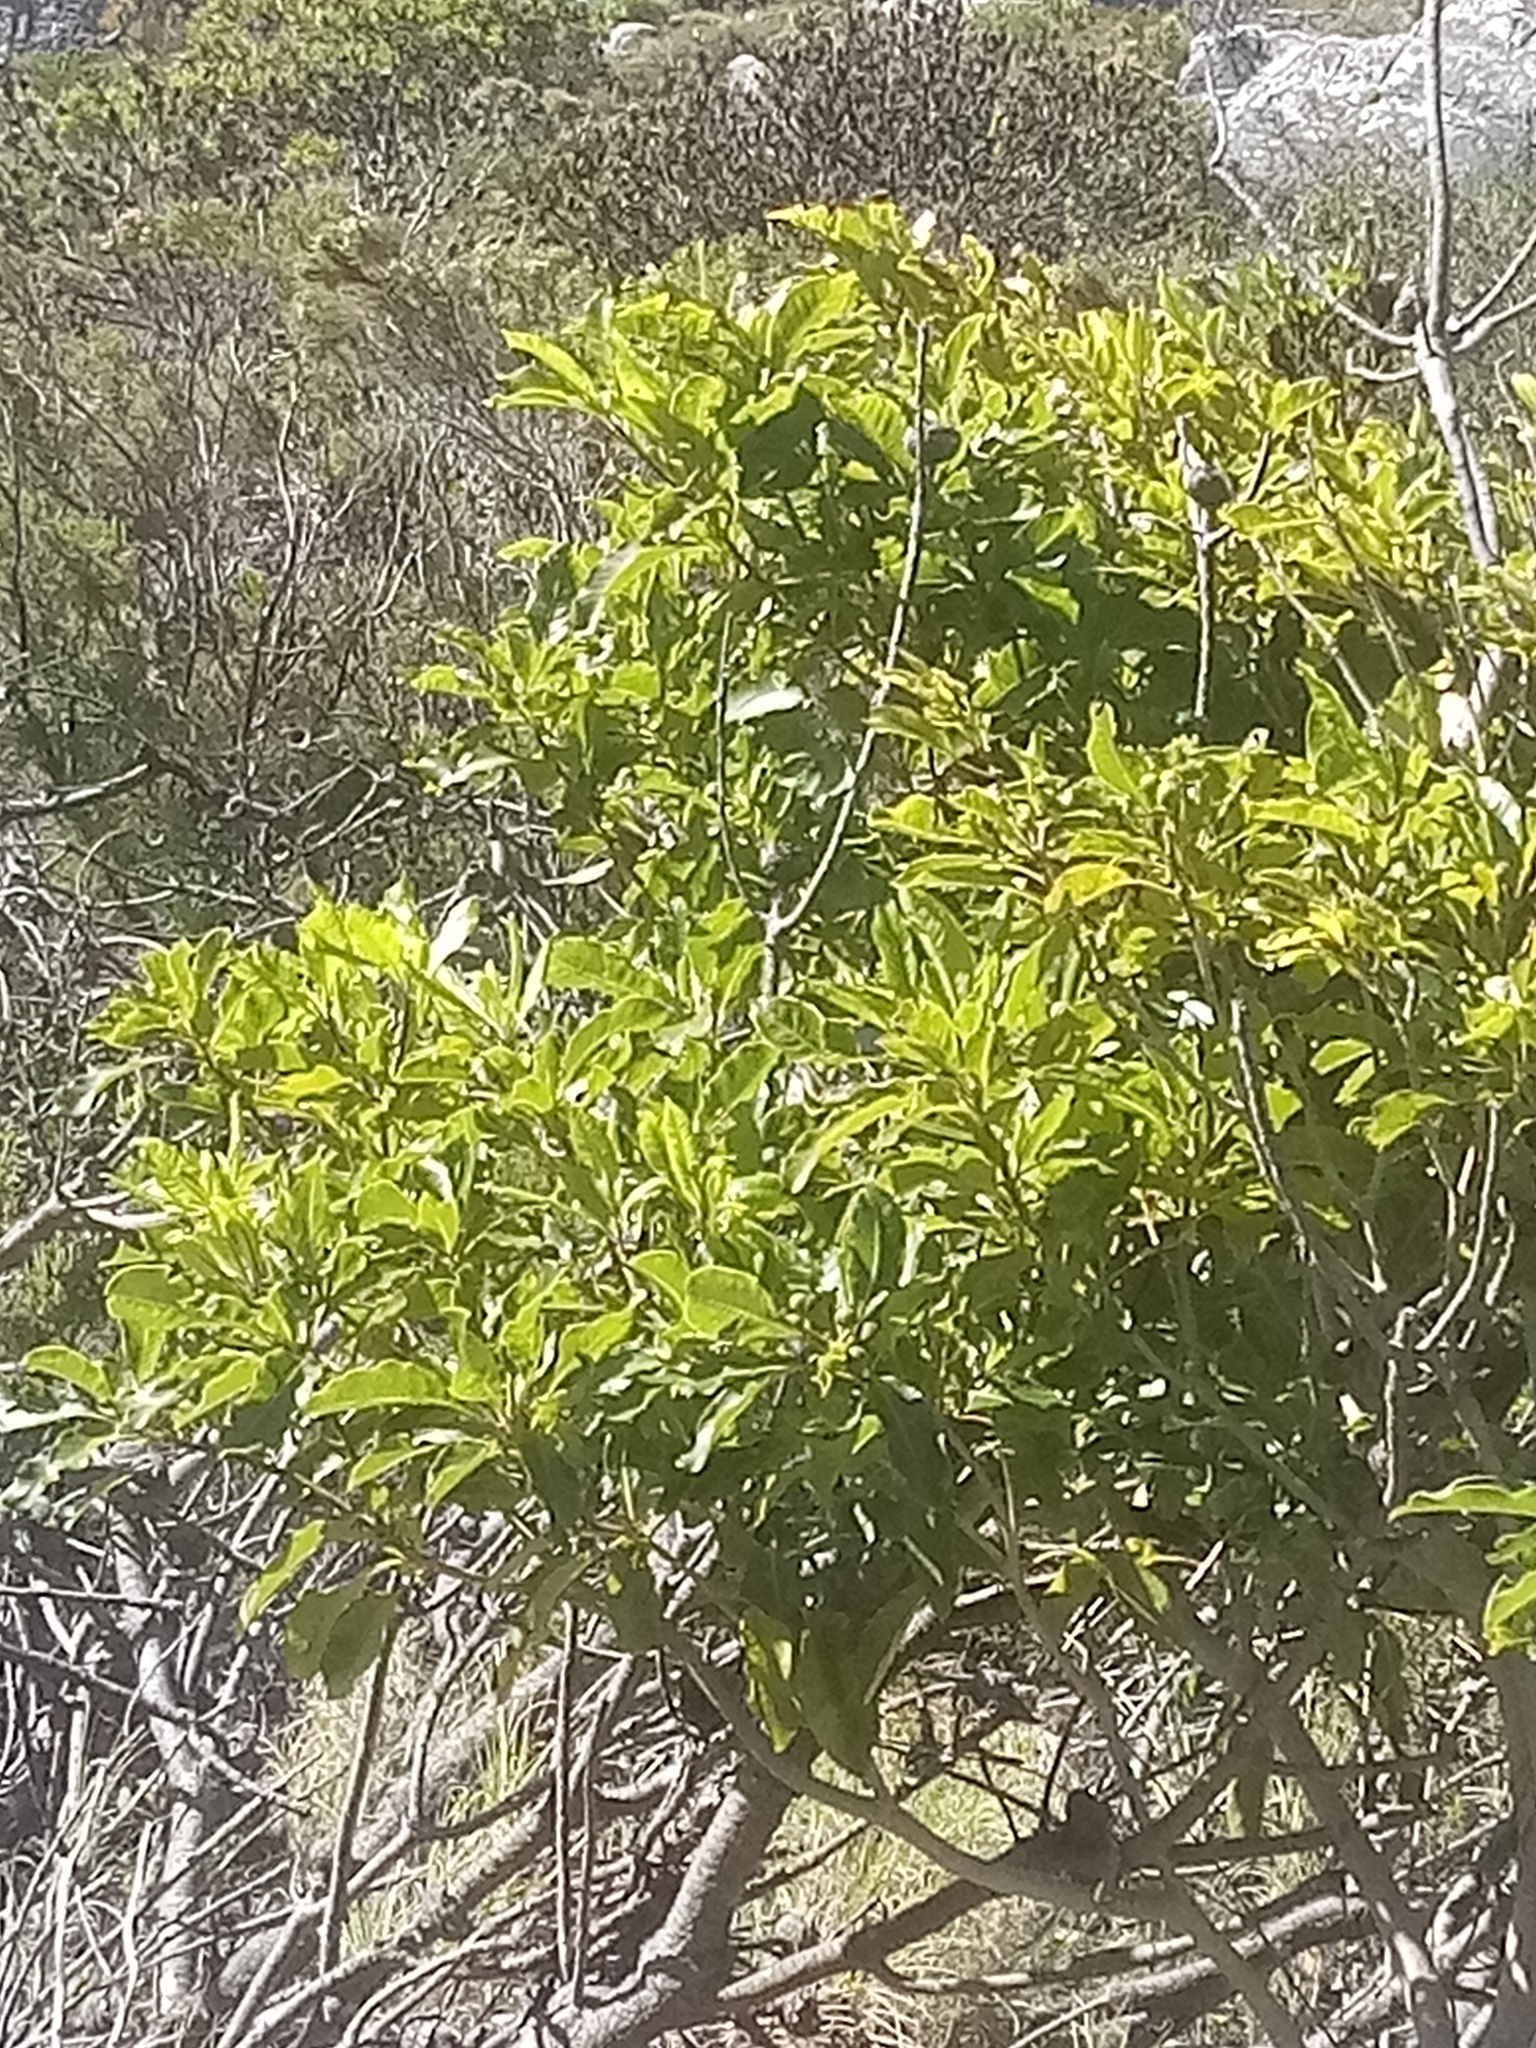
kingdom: Plantae
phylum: Tracheophyta
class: Magnoliopsida
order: Apiales
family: Pittosporaceae
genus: Pittosporum
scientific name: Pittosporum undulatum
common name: Australian cheesewood
